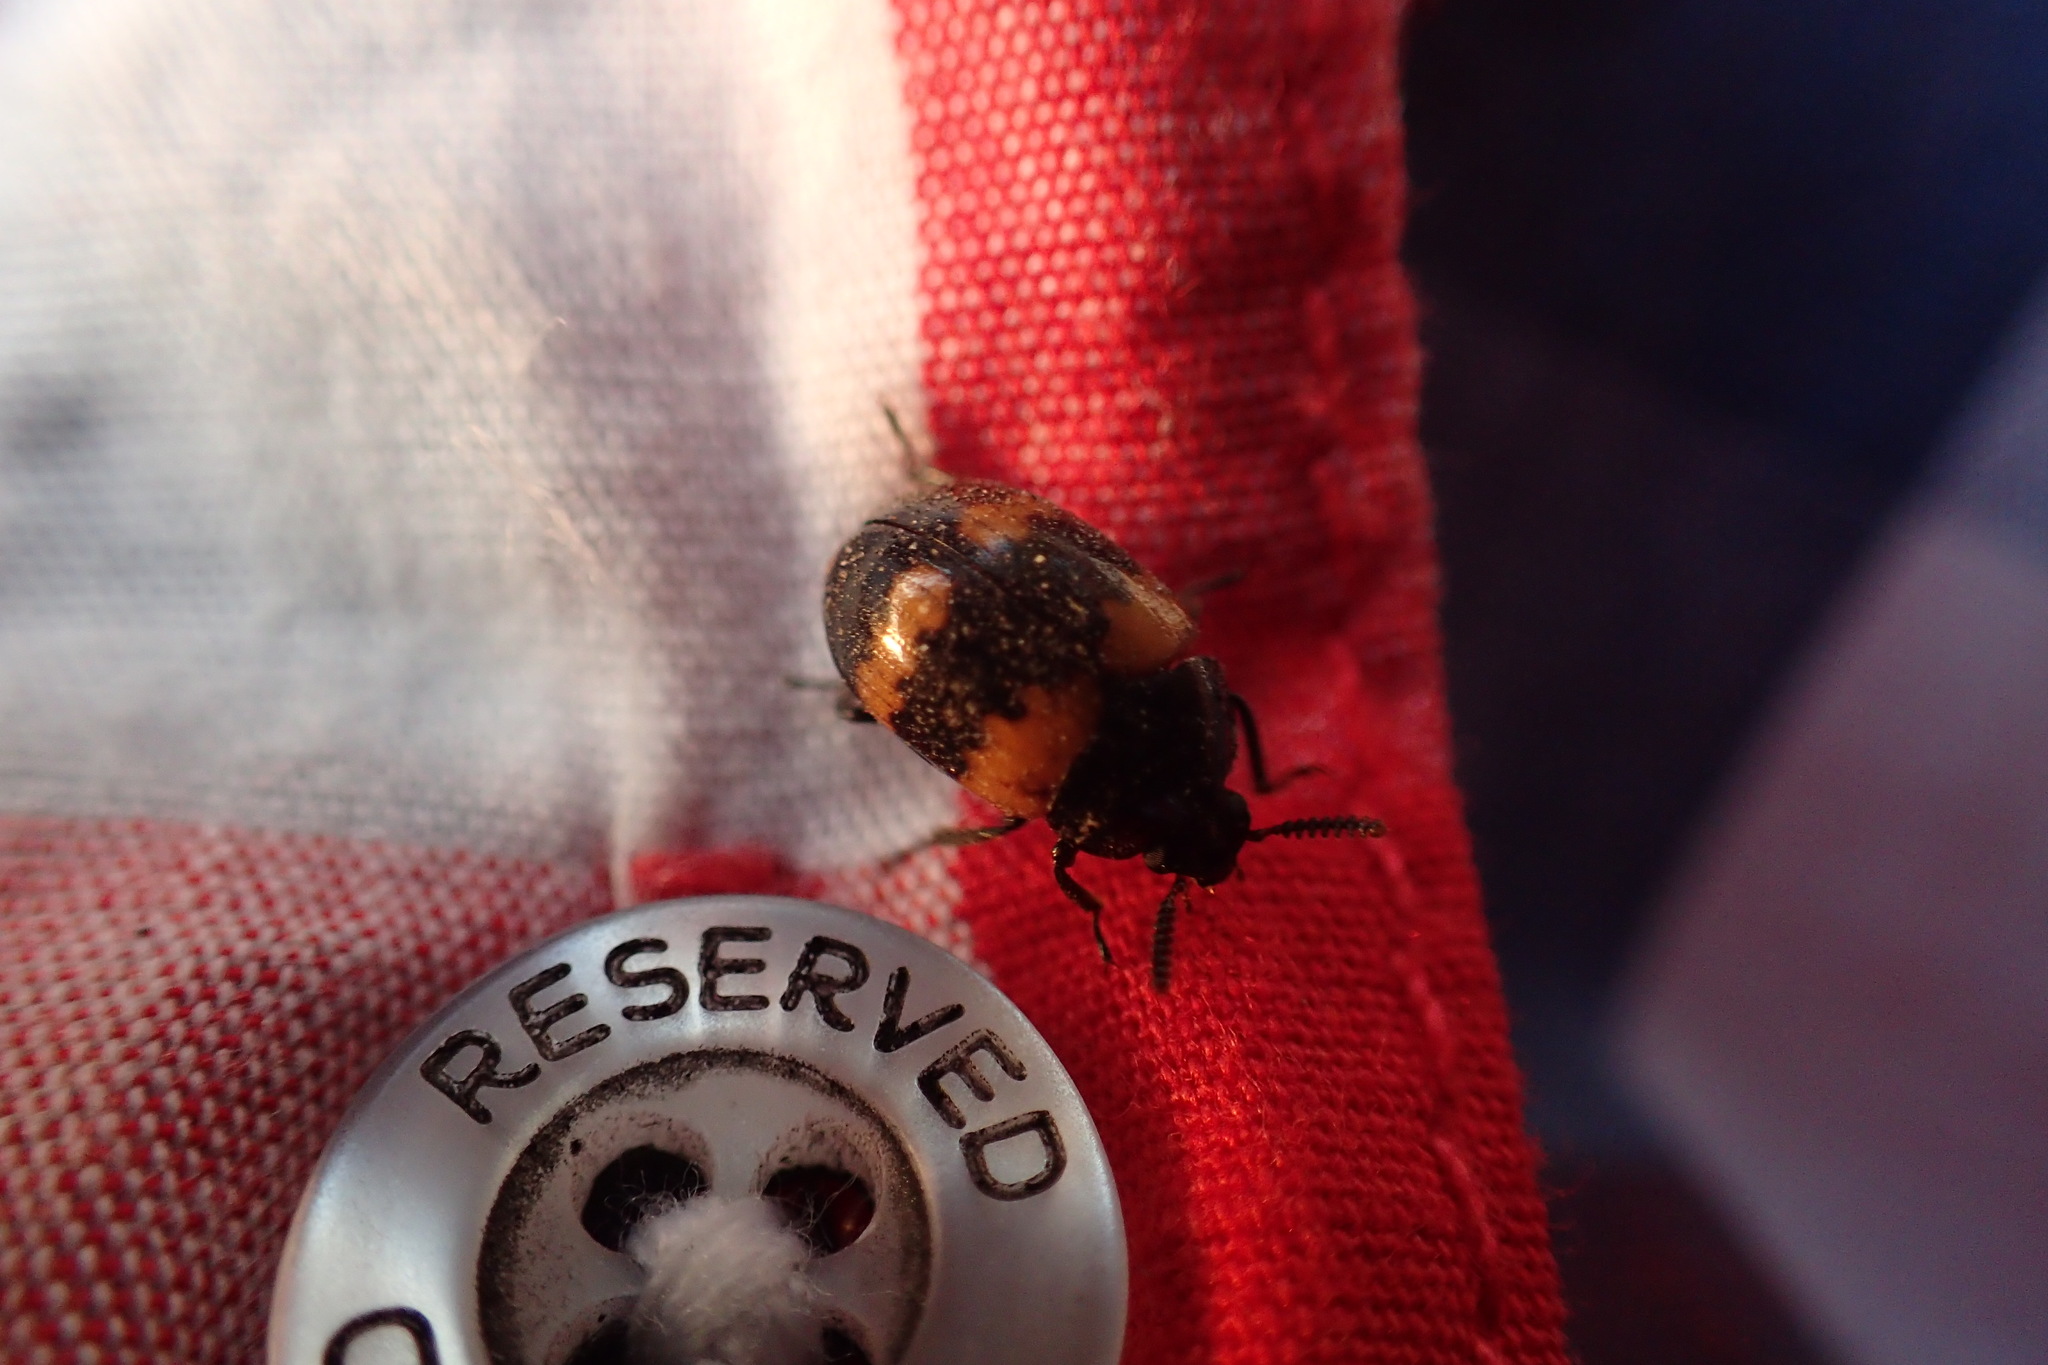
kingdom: Animalia
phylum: Arthropoda
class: Insecta
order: Coleoptera
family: Tenebrionidae
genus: Diaperis
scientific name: Diaperis boleti
